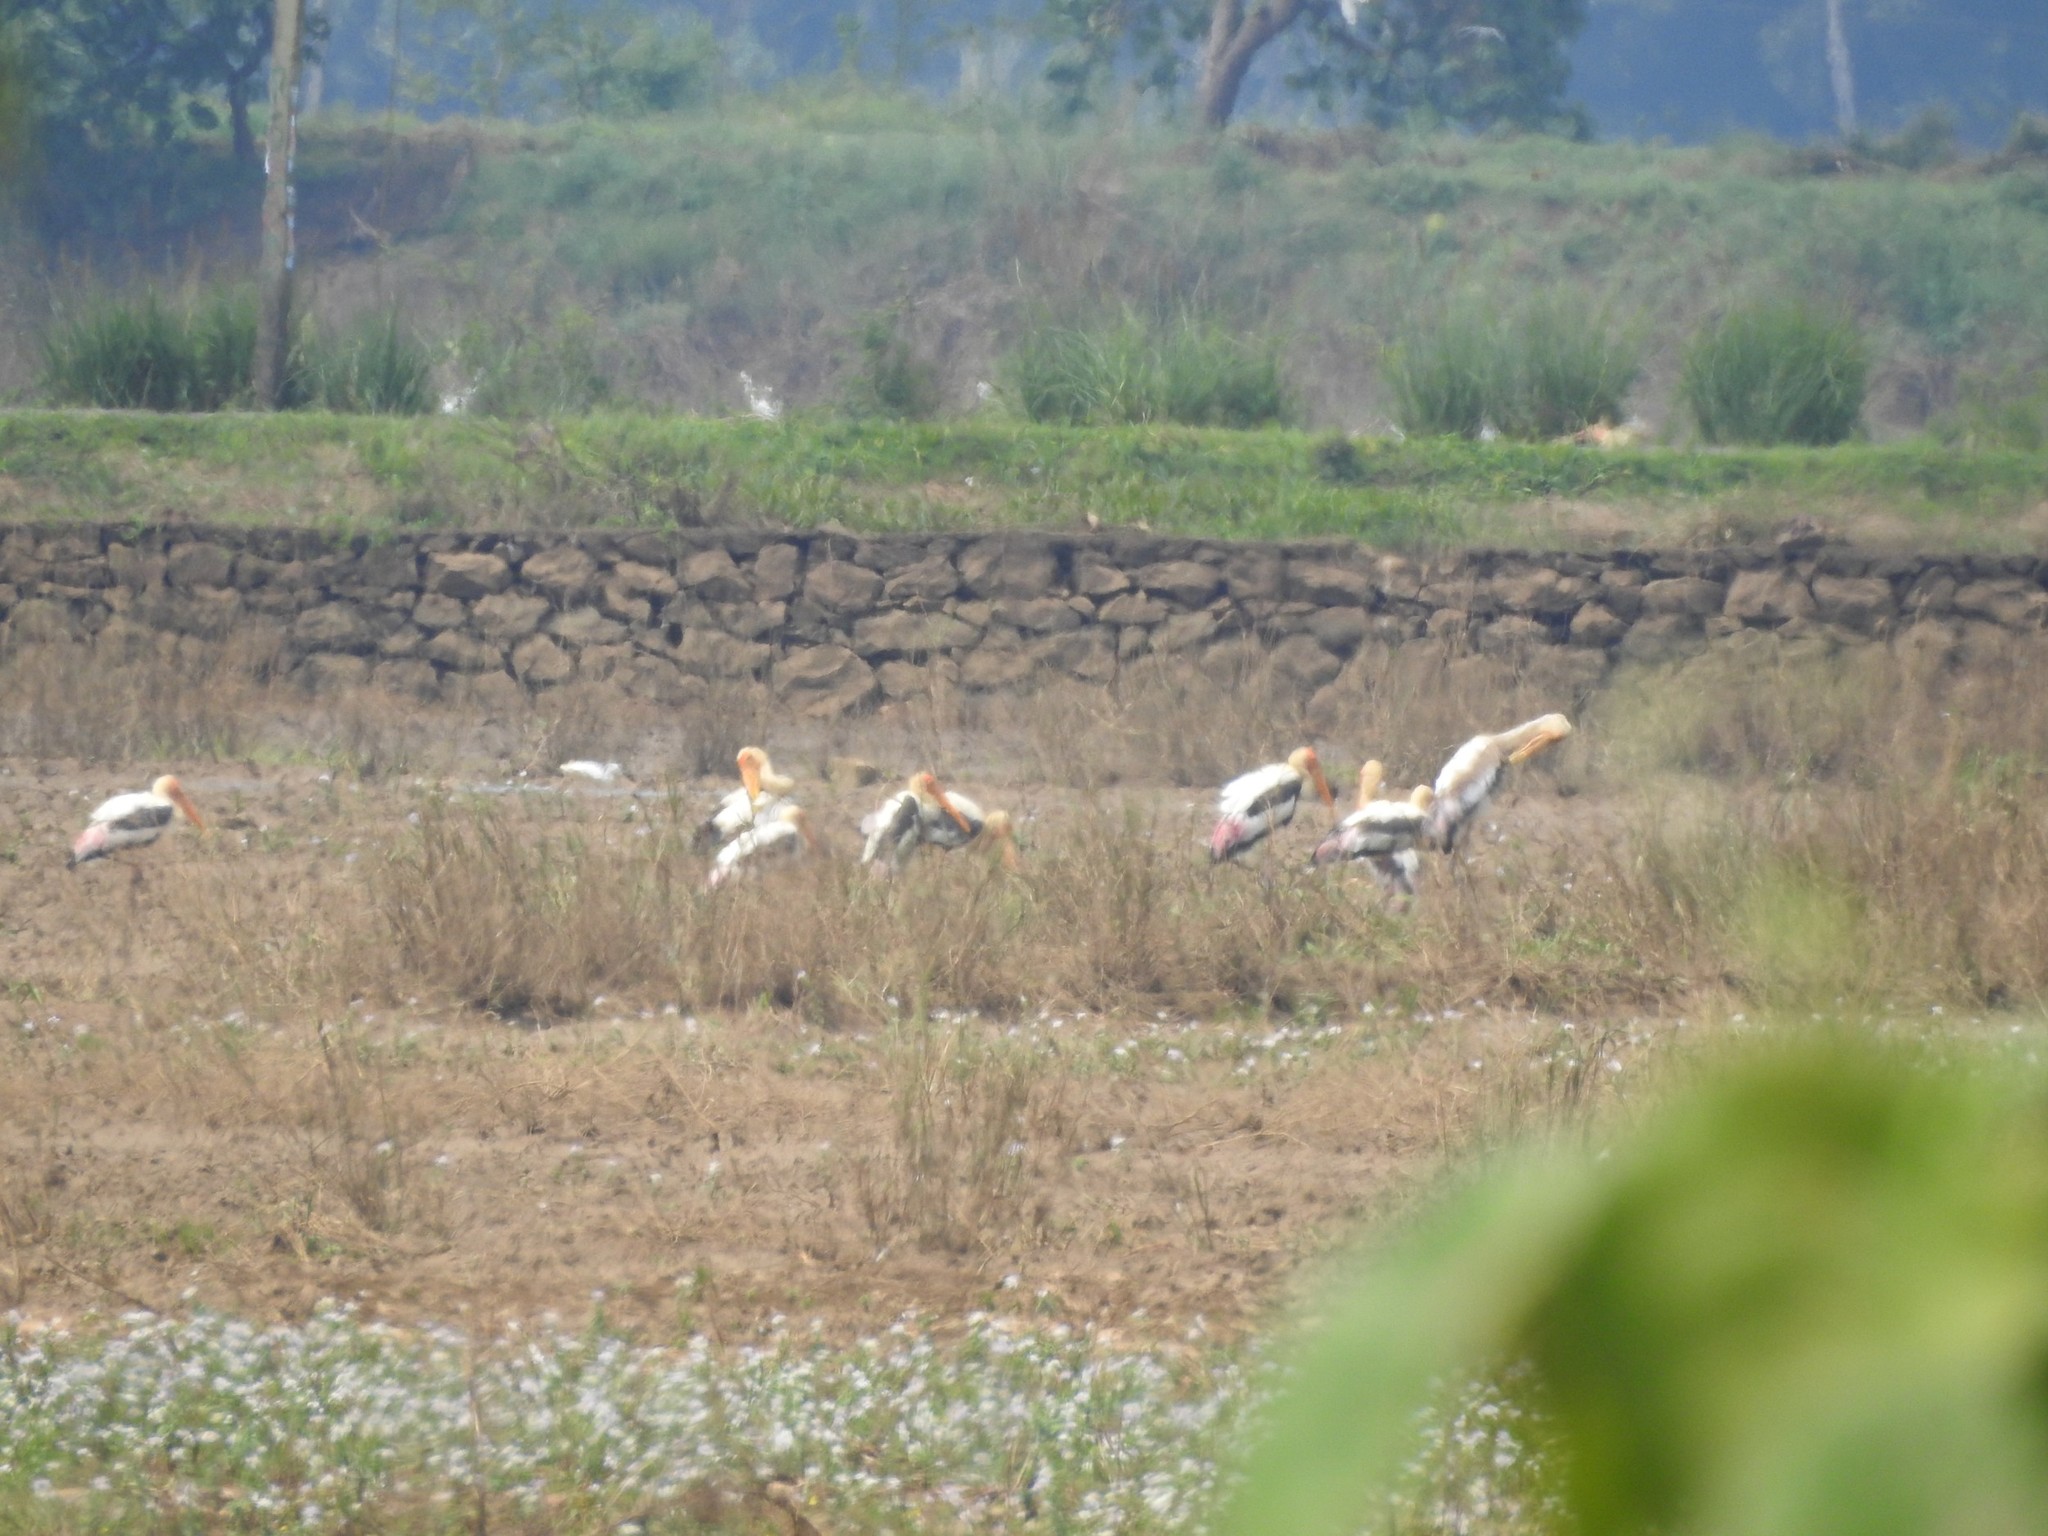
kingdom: Animalia
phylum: Chordata
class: Aves
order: Ciconiiformes
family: Ciconiidae
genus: Mycteria
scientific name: Mycteria leucocephala
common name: Painted stork
